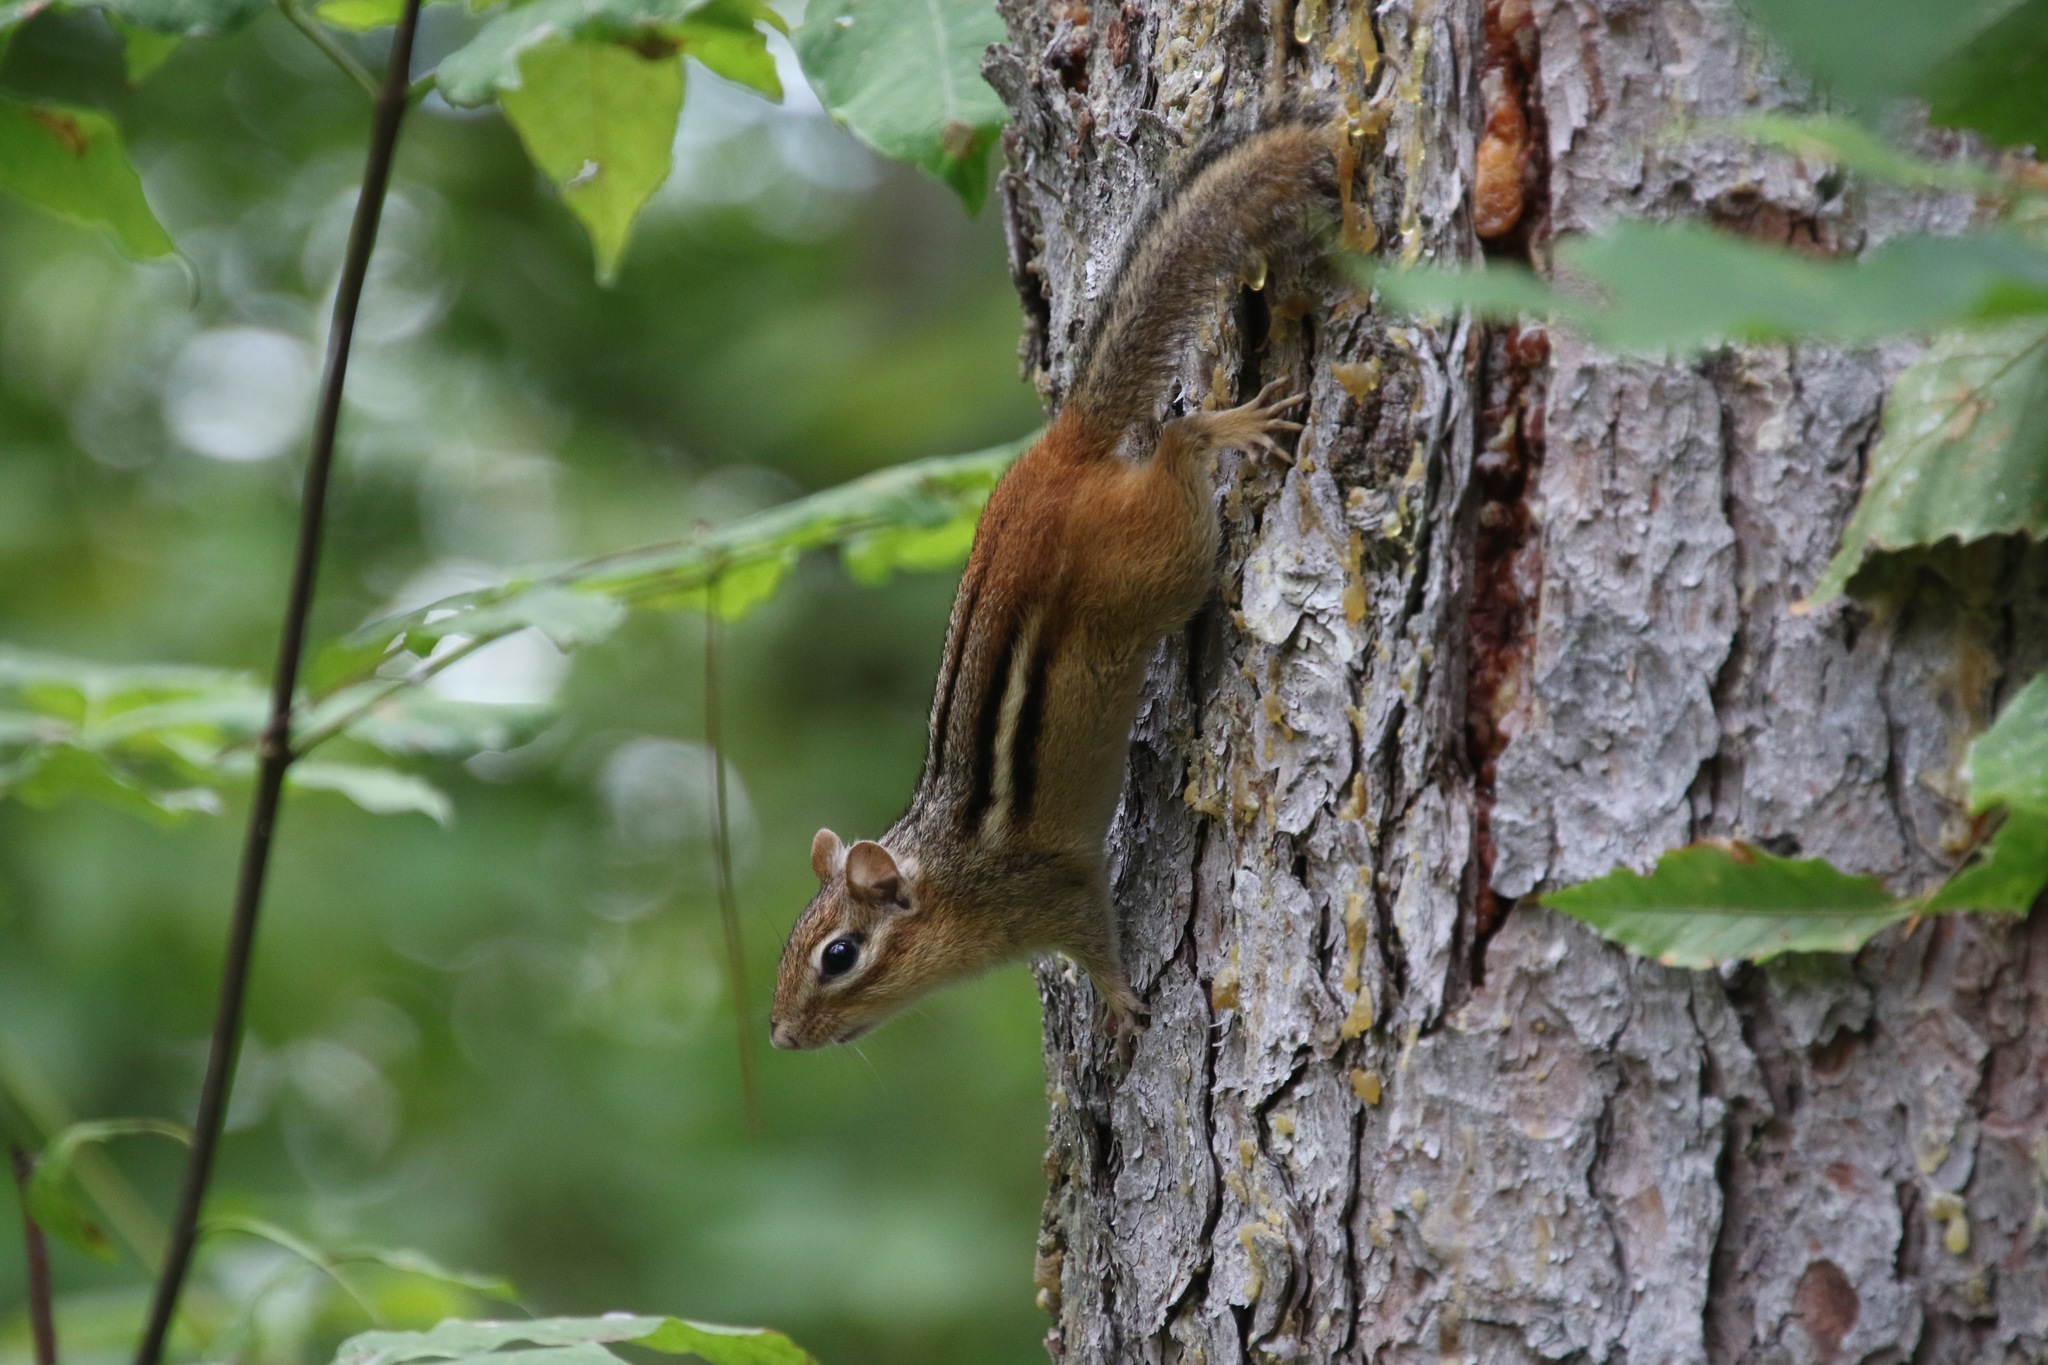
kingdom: Animalia
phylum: Chordata
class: Mammalia
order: Rodentia
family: Sciuridae
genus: Tamias
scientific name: Tamias striatus
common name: Eastern chipmunk
